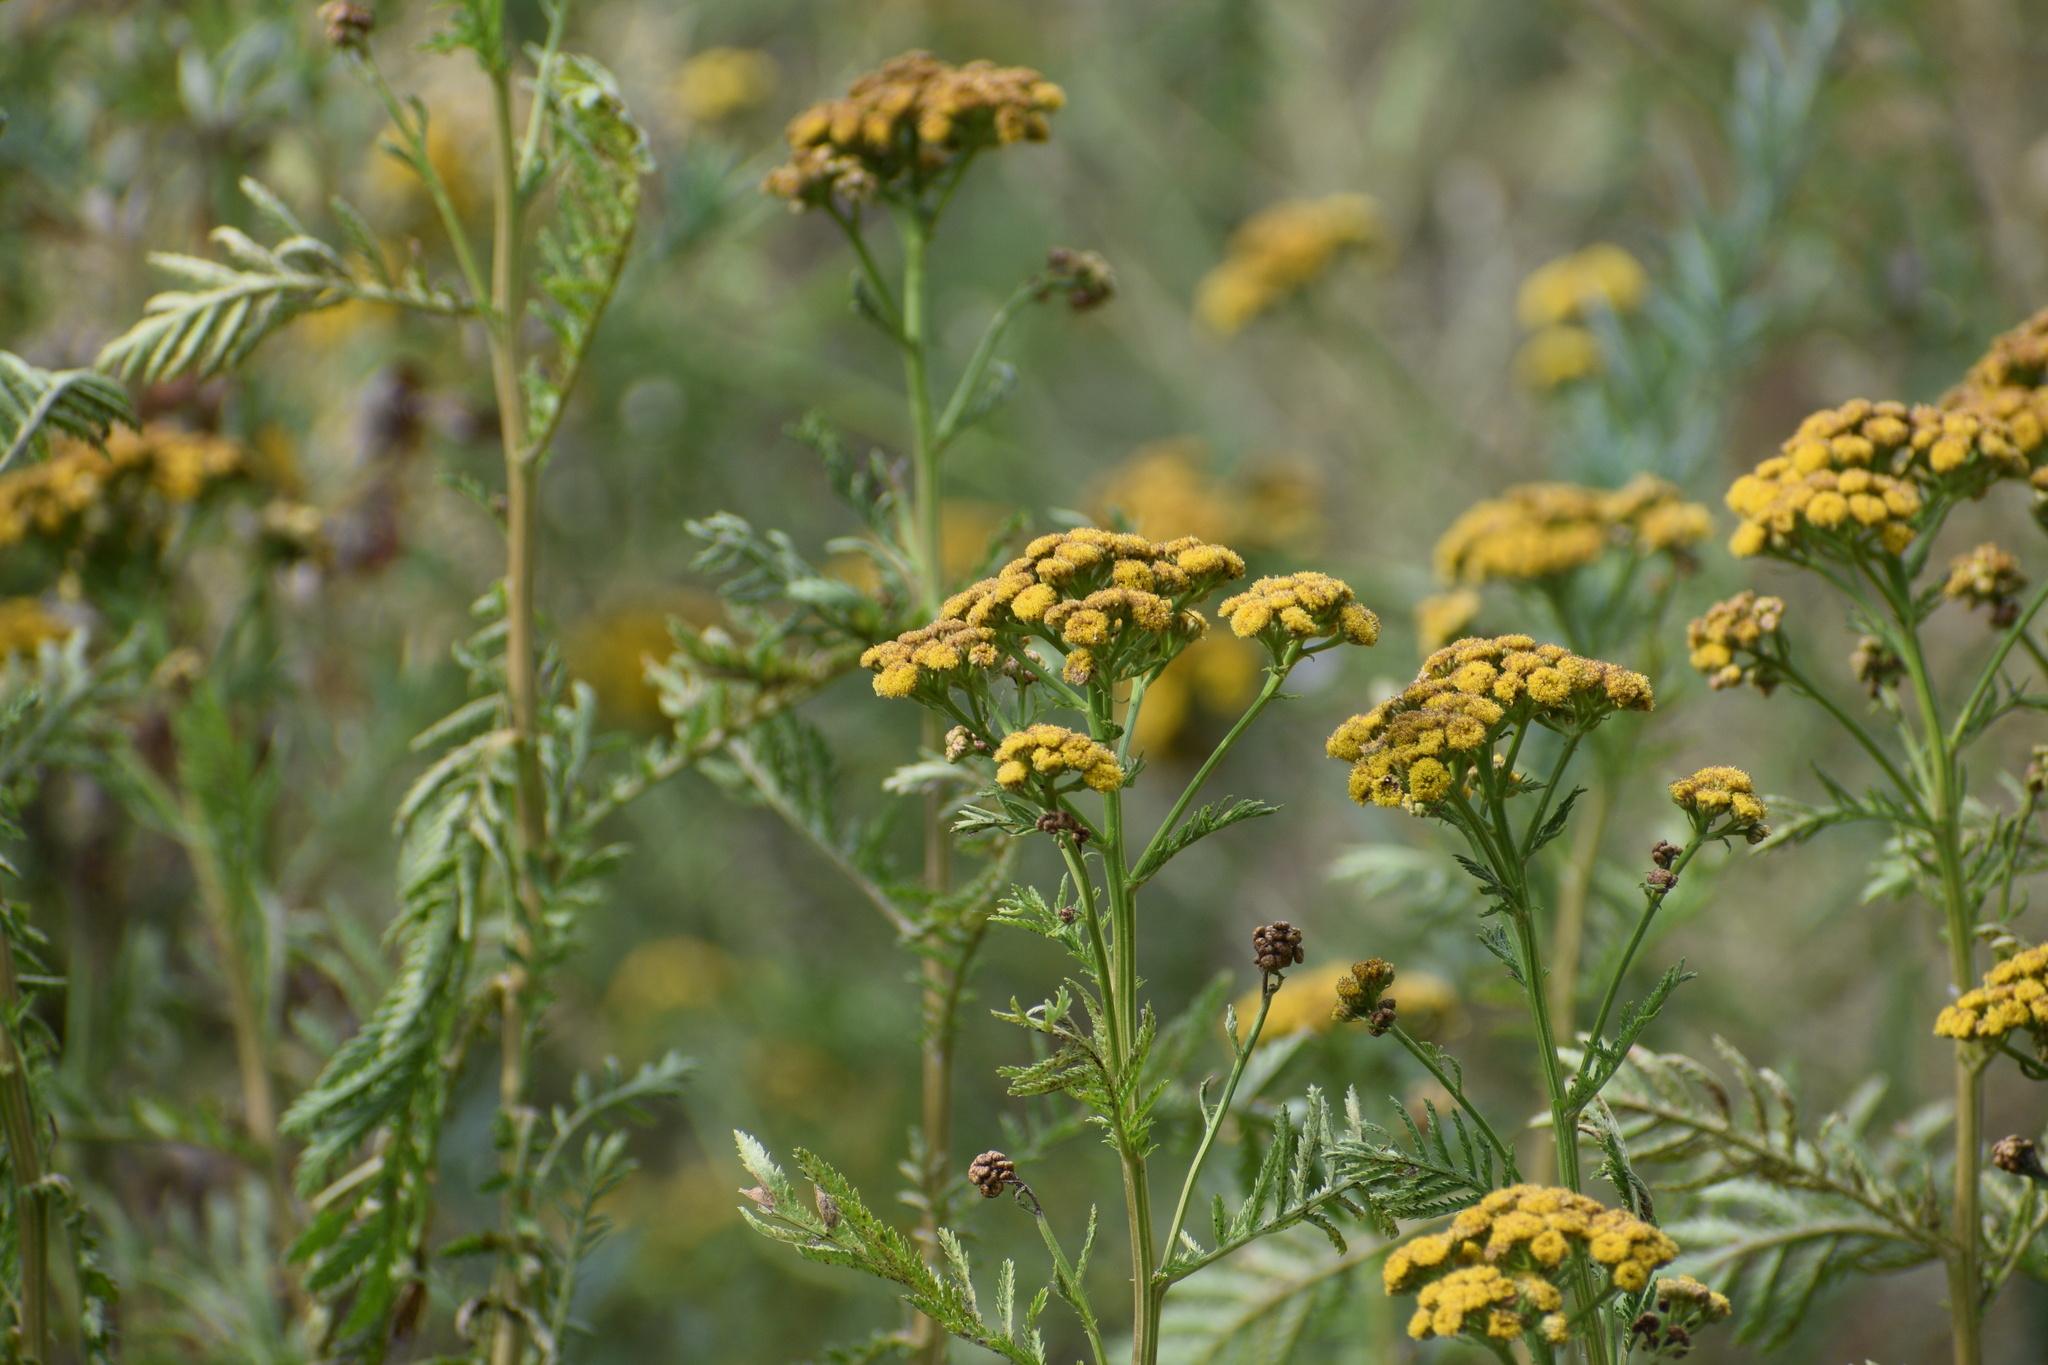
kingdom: Plantae
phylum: Tracheophyta
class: Magnoliopsida
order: Asterales
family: Asteraceae
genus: Tanacetum
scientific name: Tanacetum vulgare
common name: Common tansy
